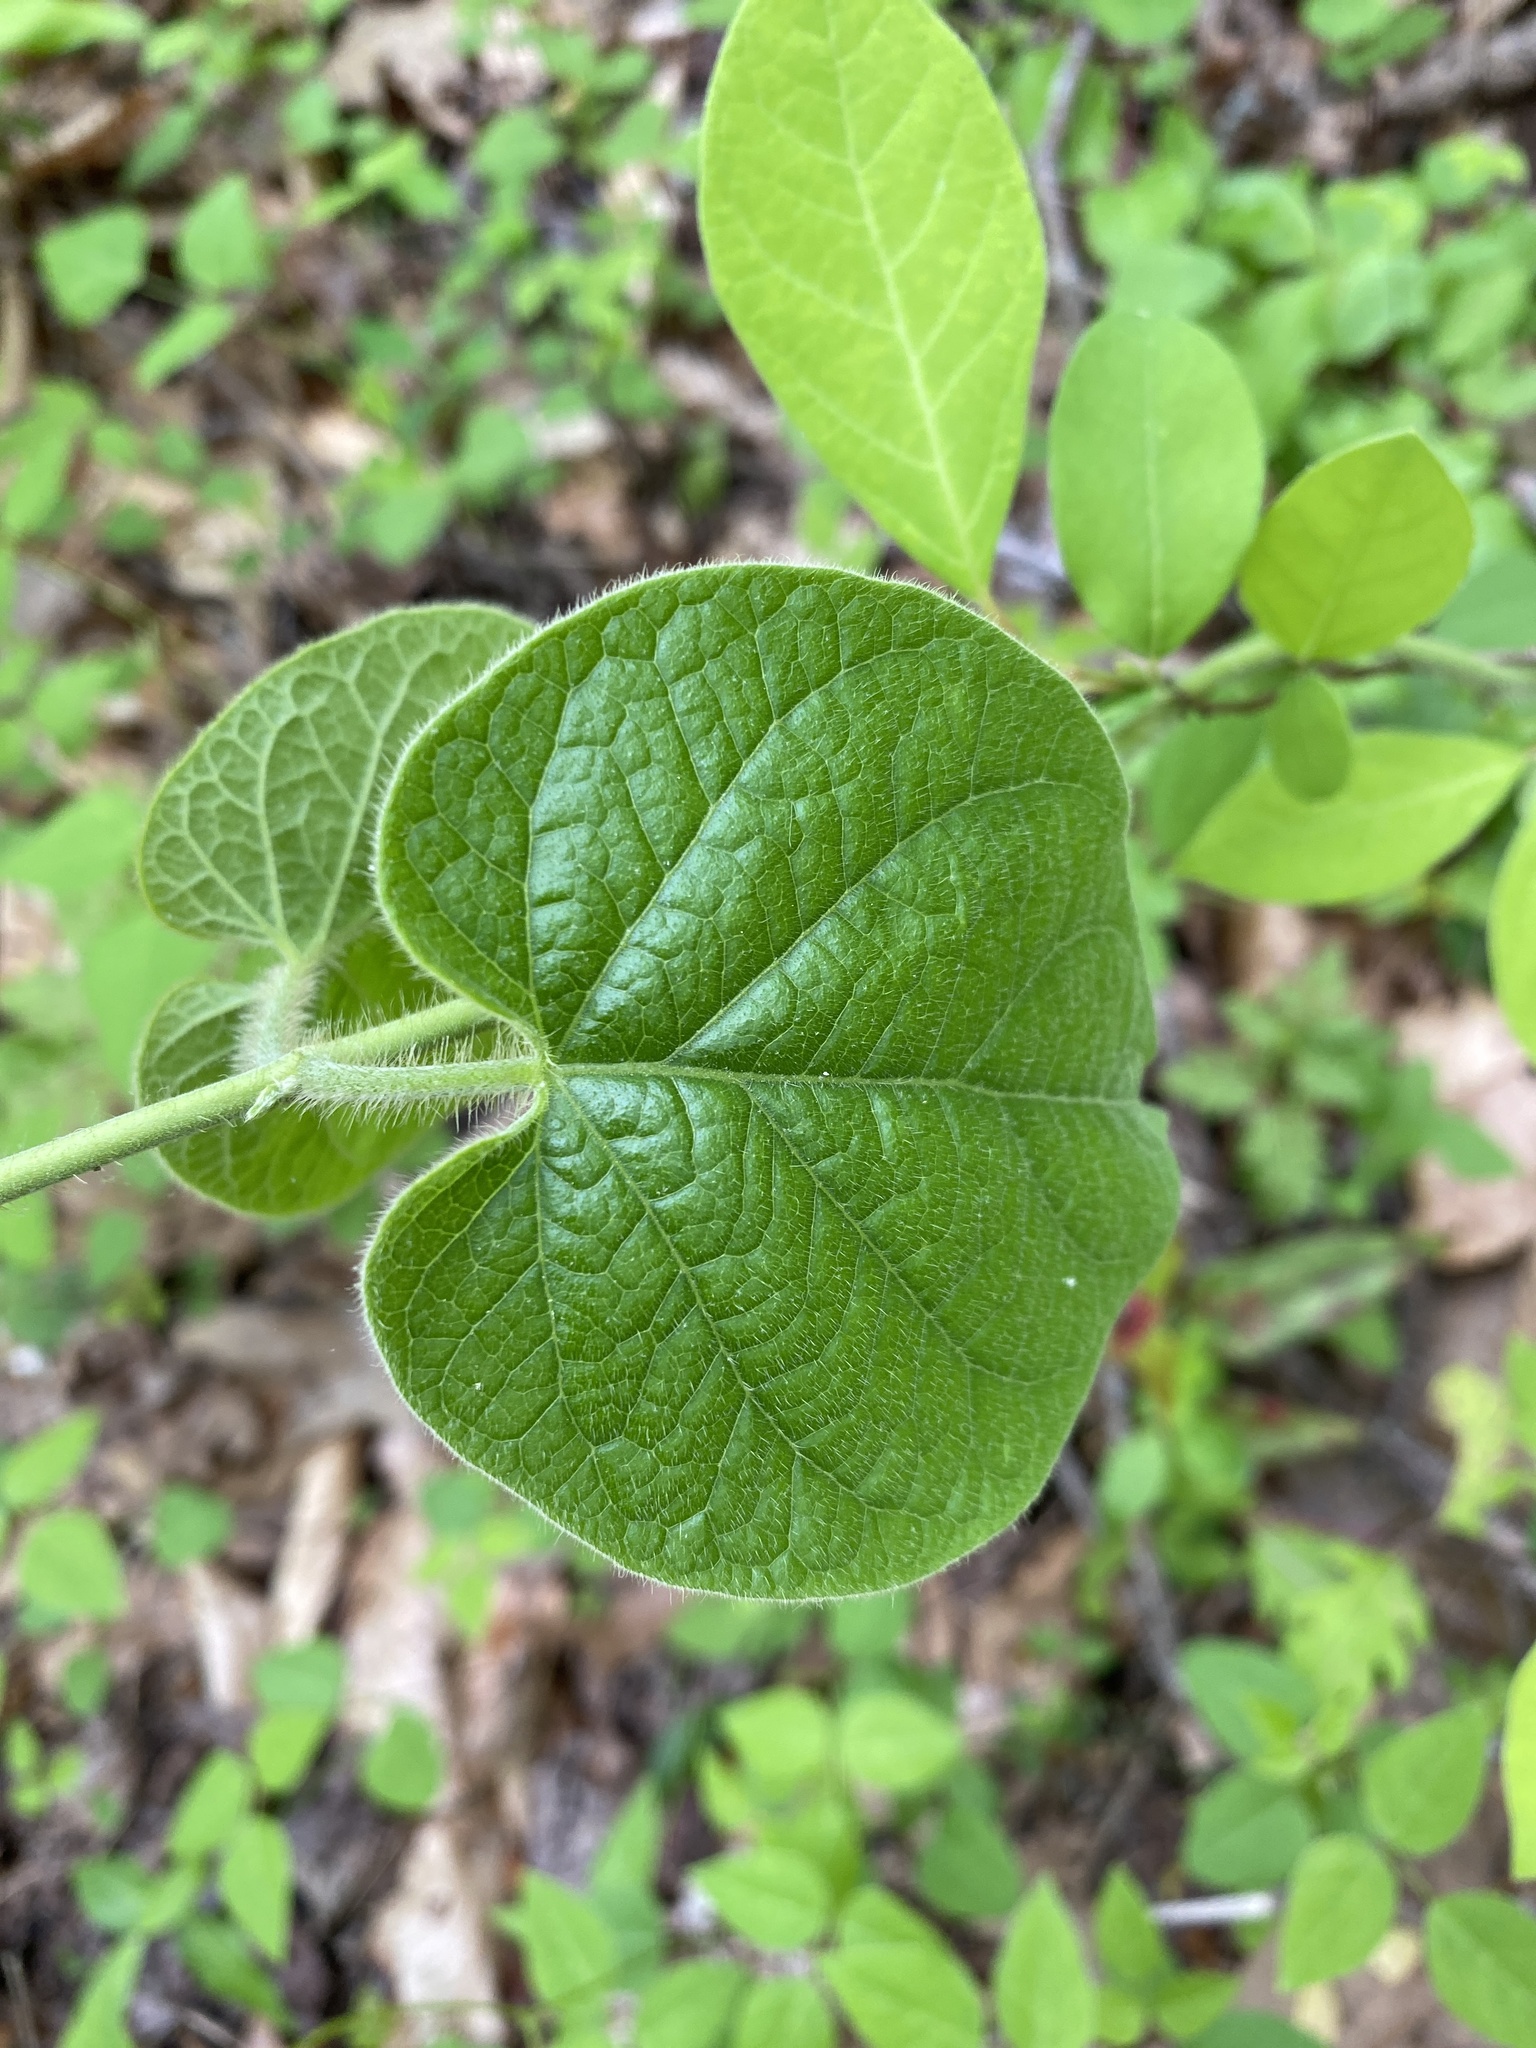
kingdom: Plantae
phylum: Tracheophyta
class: Magnoliopsida
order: Gentianales
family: Apocynaceae
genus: Gonolobus
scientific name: Gonolobus suberosus
